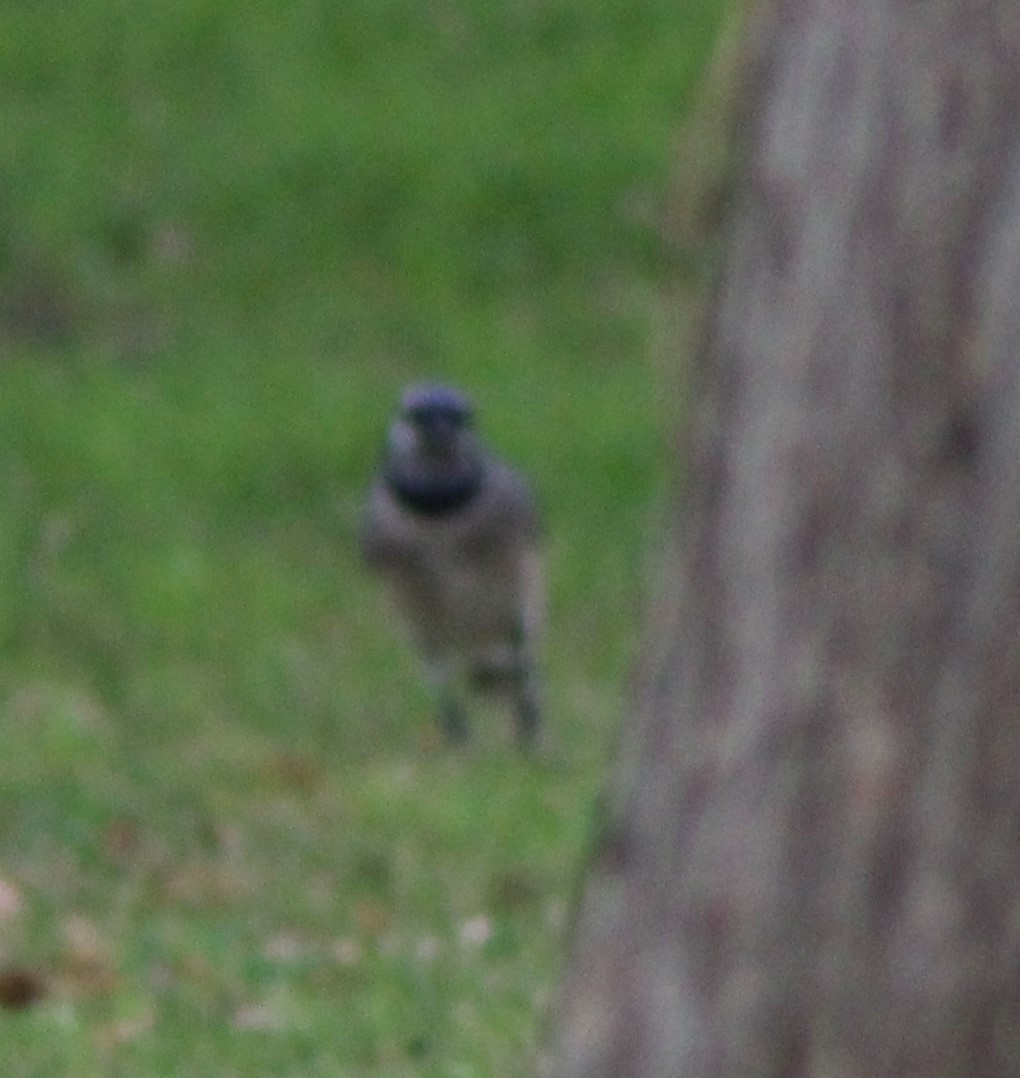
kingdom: Animalia
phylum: Chordata
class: Aves
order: Passeriformes
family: Corvidae
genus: Cyanocitta
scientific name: Cyanocitta cristata
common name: Blue jay
